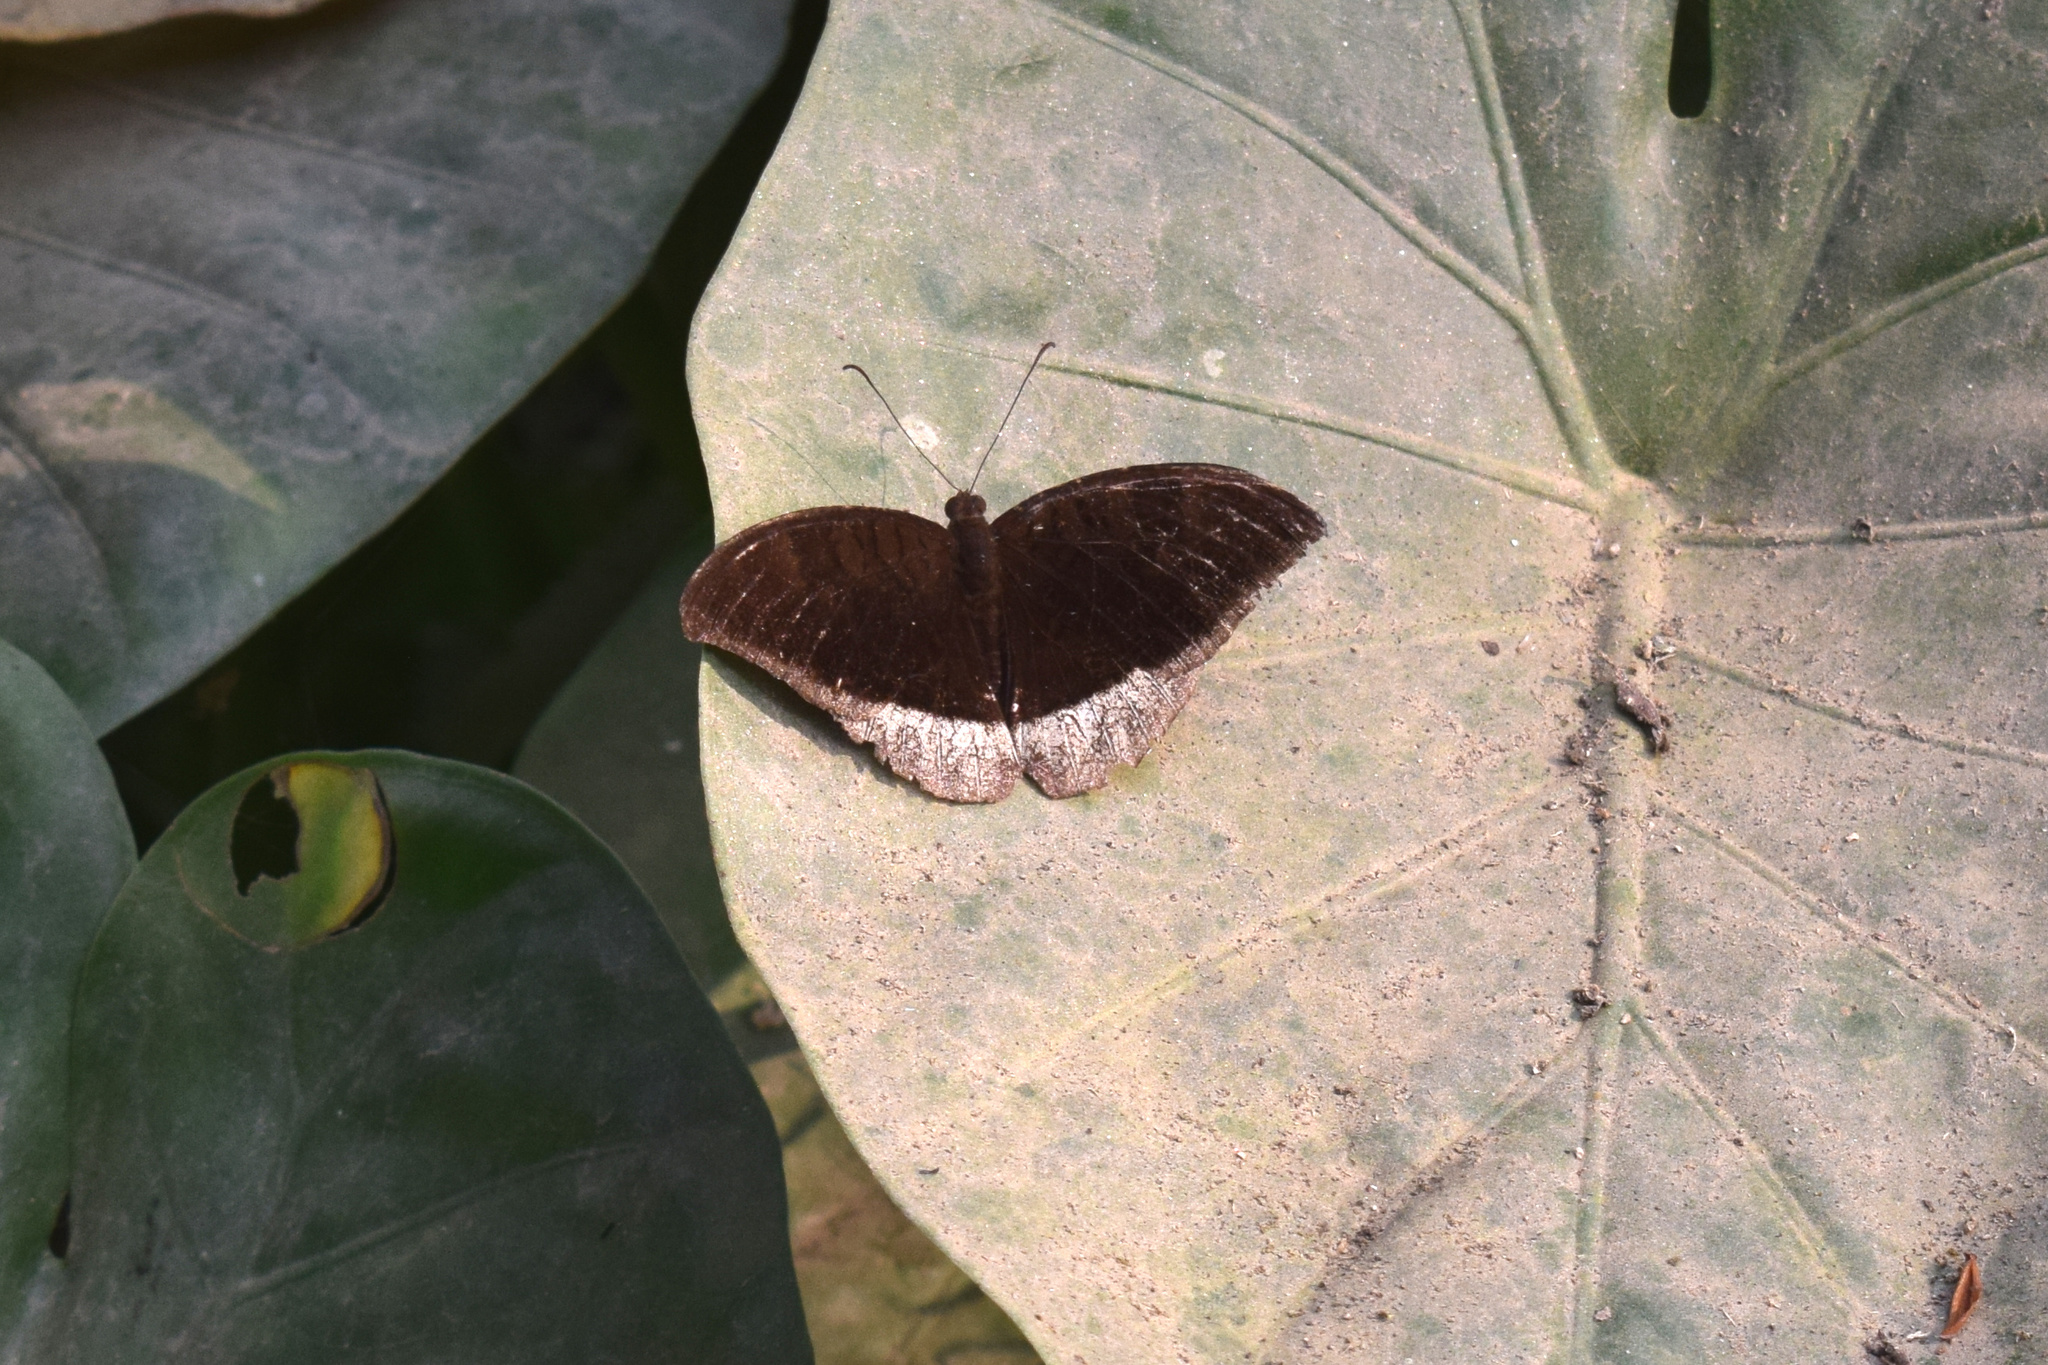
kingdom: Animalia
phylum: Arthropoda
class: Insecta
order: Lepidoptera
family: Nymphalidae
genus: Tanaecia
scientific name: Tanaecia lepidea
